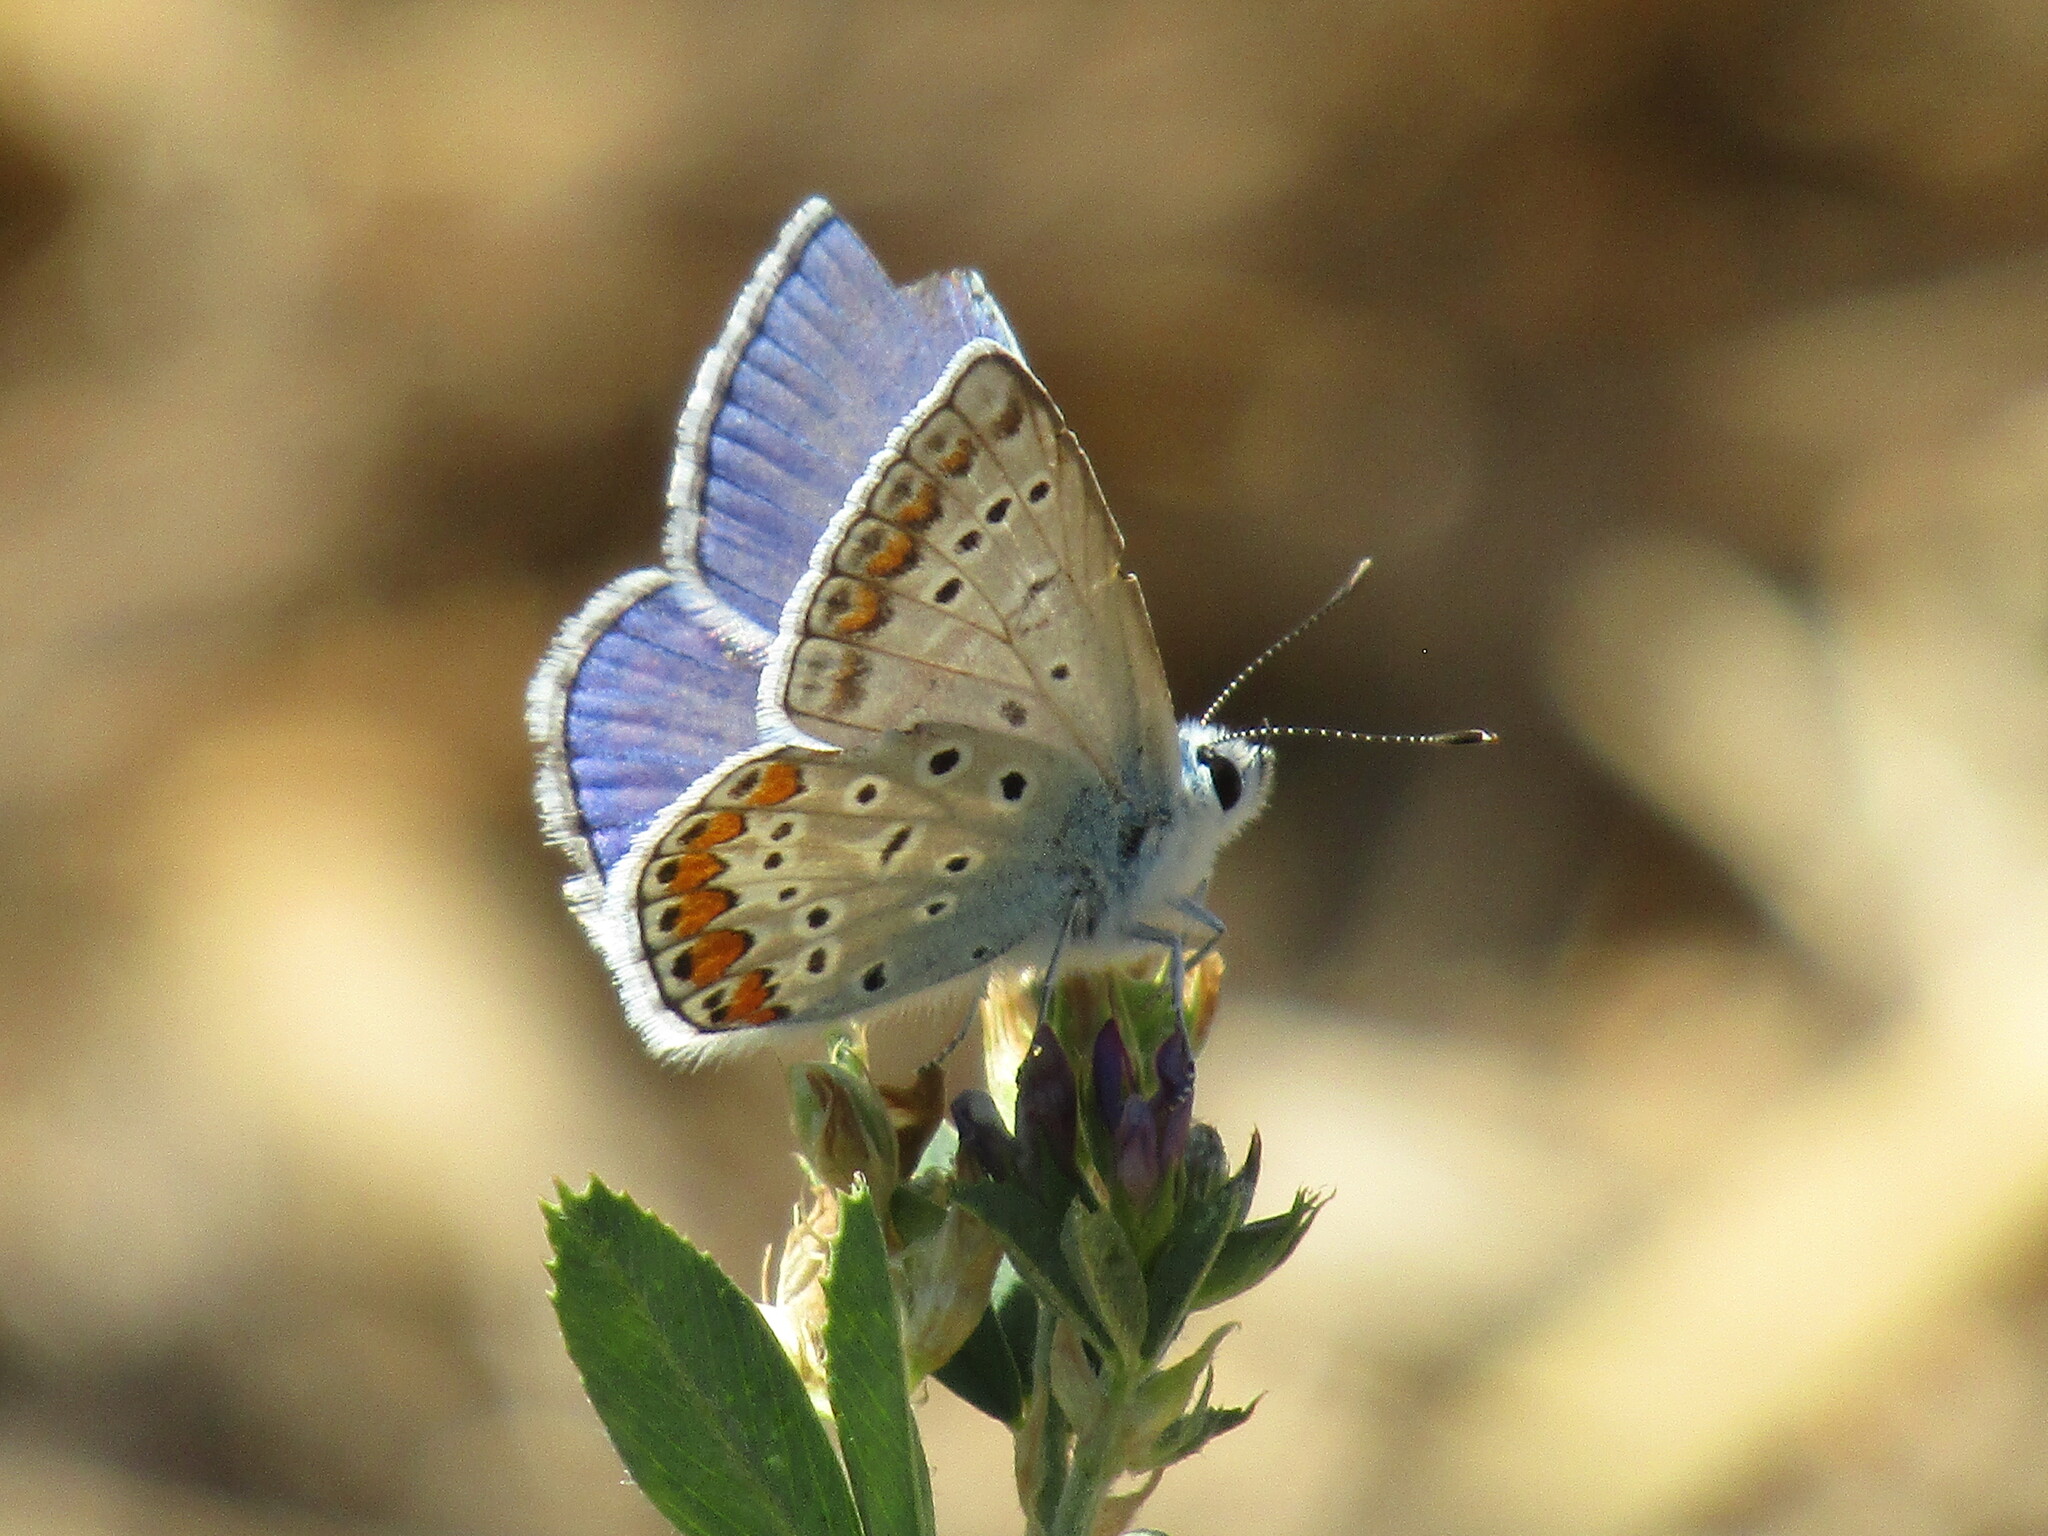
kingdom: Animalia
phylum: Arthropoda
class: Insecta
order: Lepidoptera
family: Lycaenidae
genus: Polyommatus
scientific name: Polyommatus icarus
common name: Common blue
